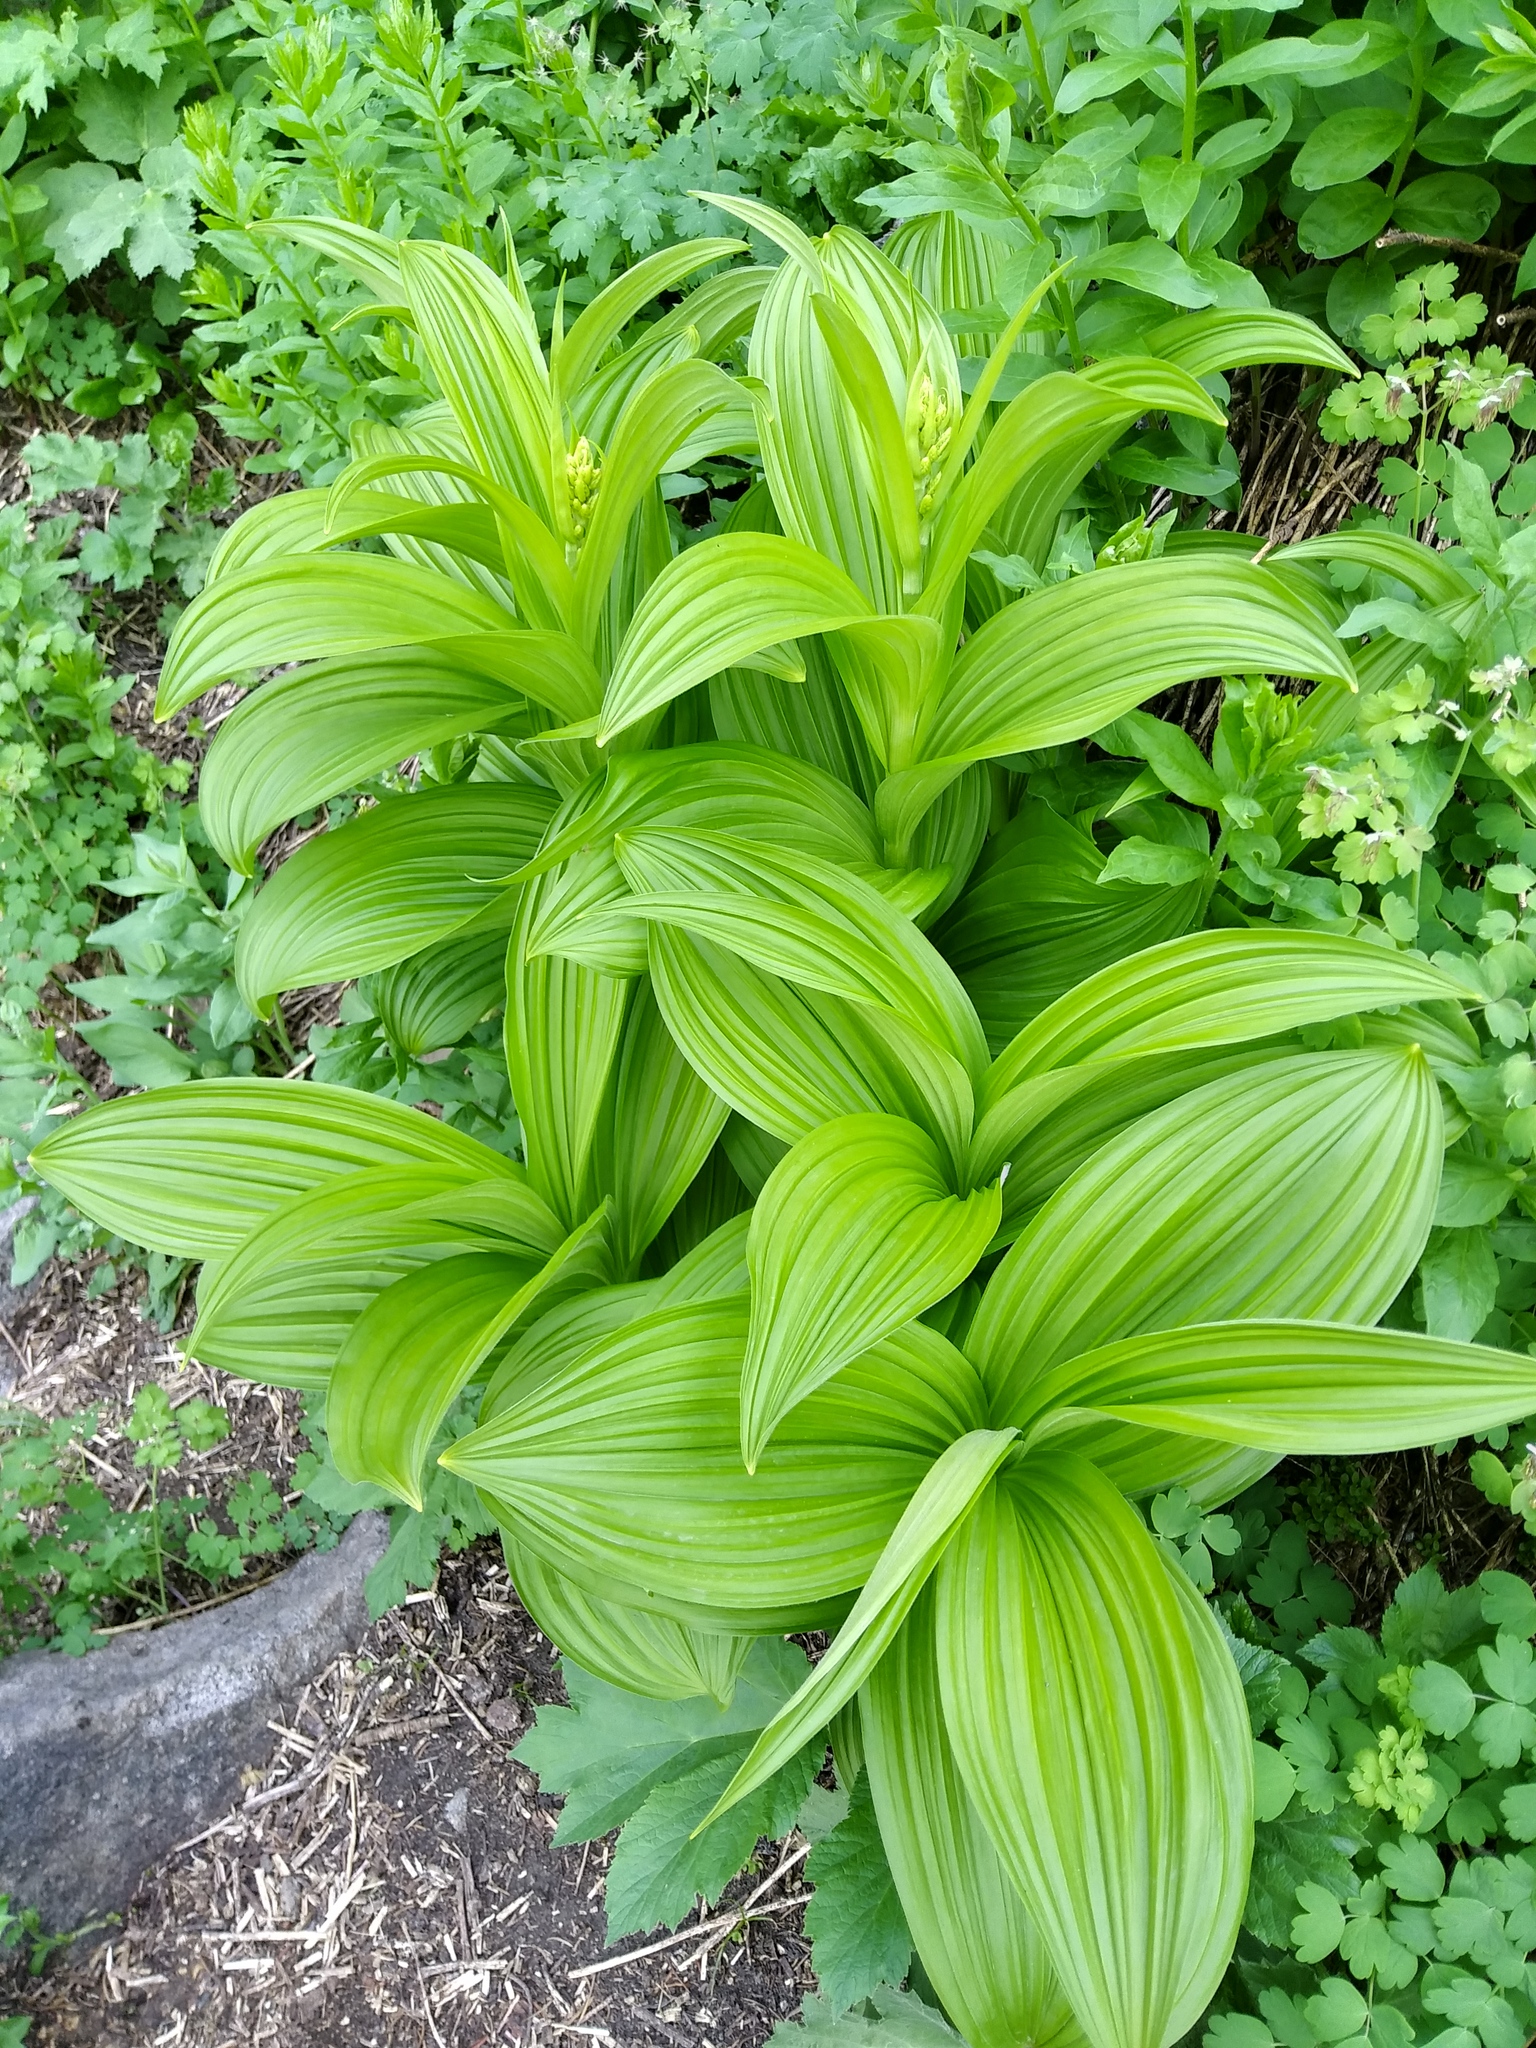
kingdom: Plantae
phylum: Tracheophyta
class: Liliopsida
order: Liliales
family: Melanthiaceae
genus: Veratrum
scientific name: Veratrum viride
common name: American false hellebore
